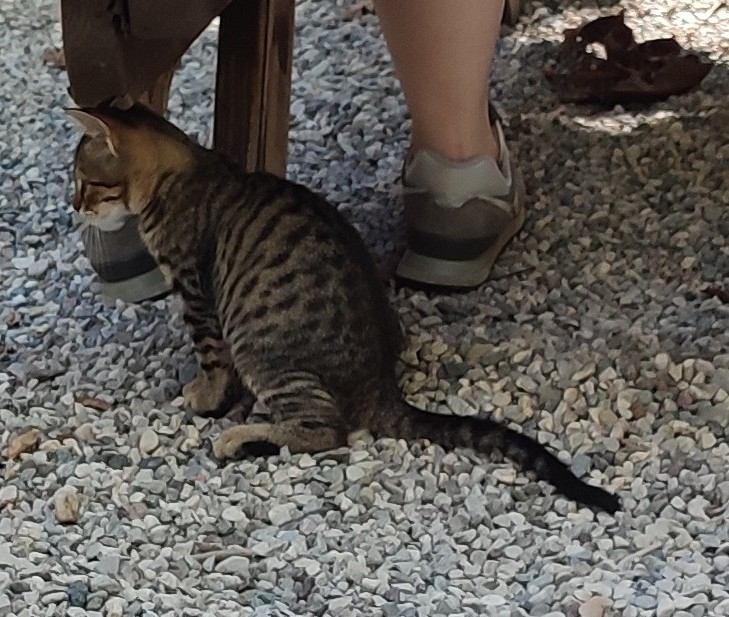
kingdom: Animalia
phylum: Chordata
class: Mammalia
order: Carnivora
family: Felidae
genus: Felis
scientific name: Felis catus
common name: Domestic cat
